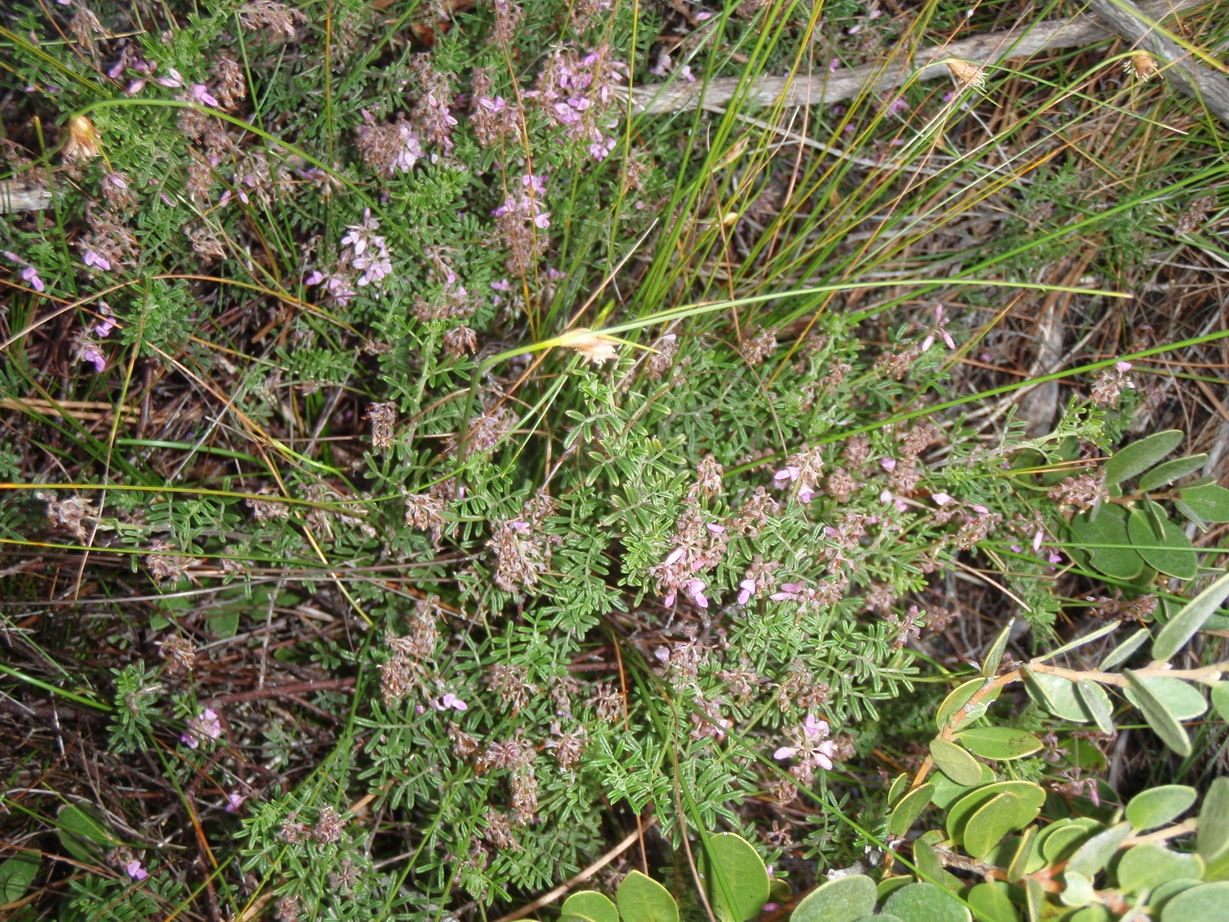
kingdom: Plantae
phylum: Tracheophyta
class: Magnoliopsida
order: Fabales
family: Fabaceae
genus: Indigofera
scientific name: Indigofera angustifolia
